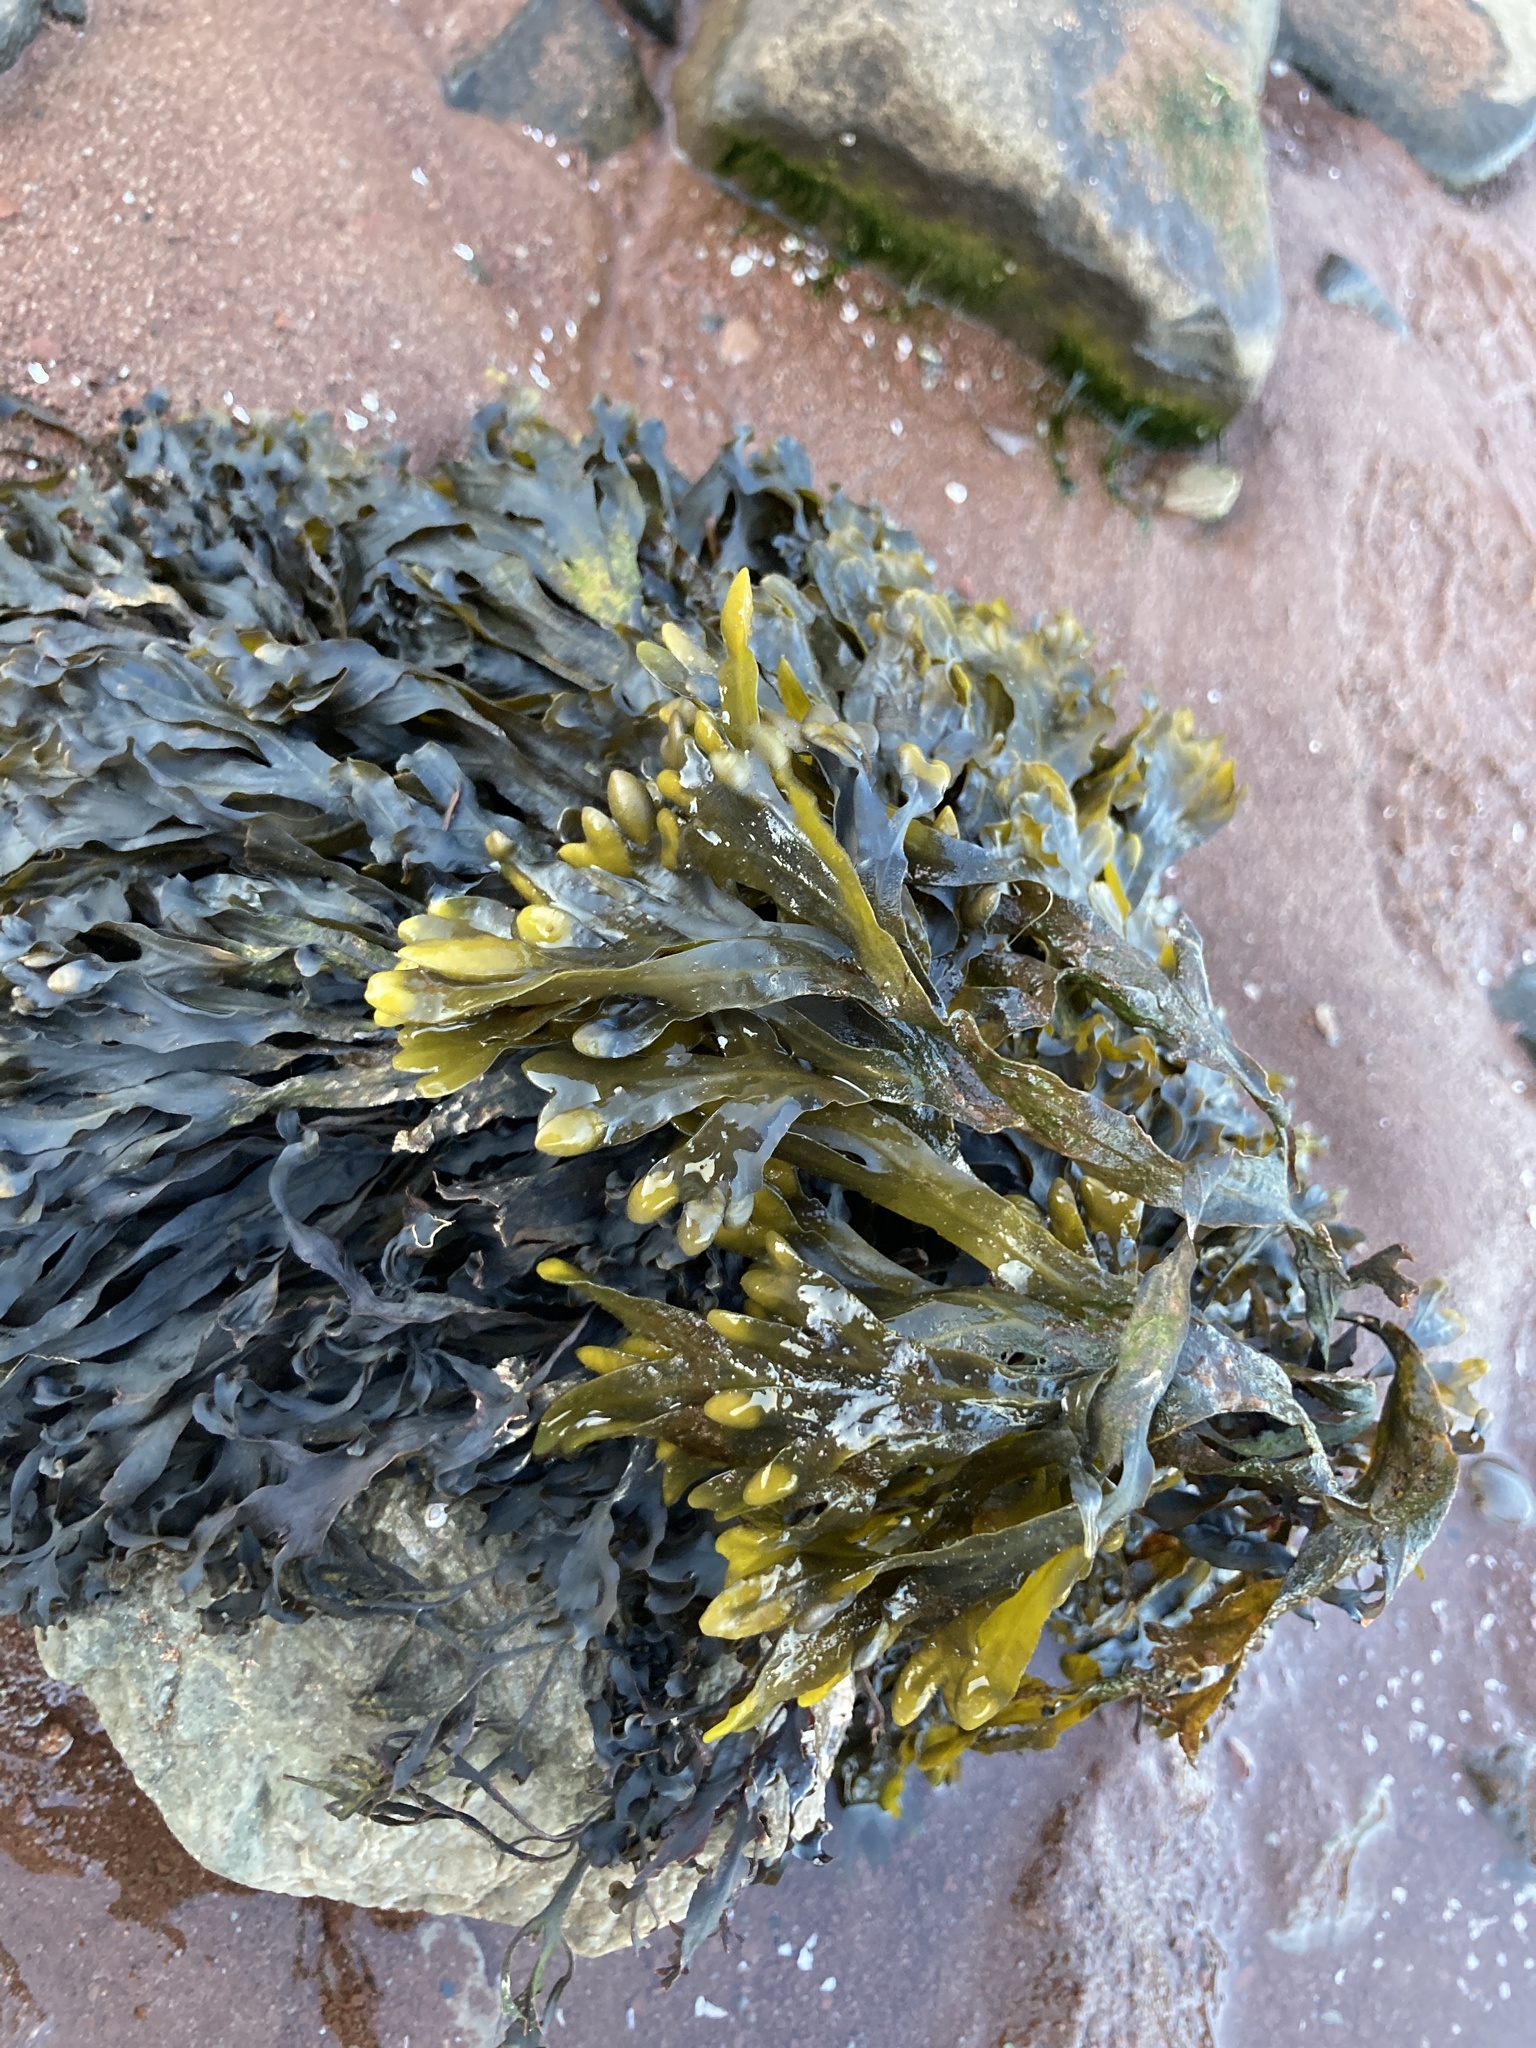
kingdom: Chromista
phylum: Ochrophyta
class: Phaeophyceae
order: Fucales
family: Fucaceae
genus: Fucus
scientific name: Fucus distichus
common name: Rockweed
